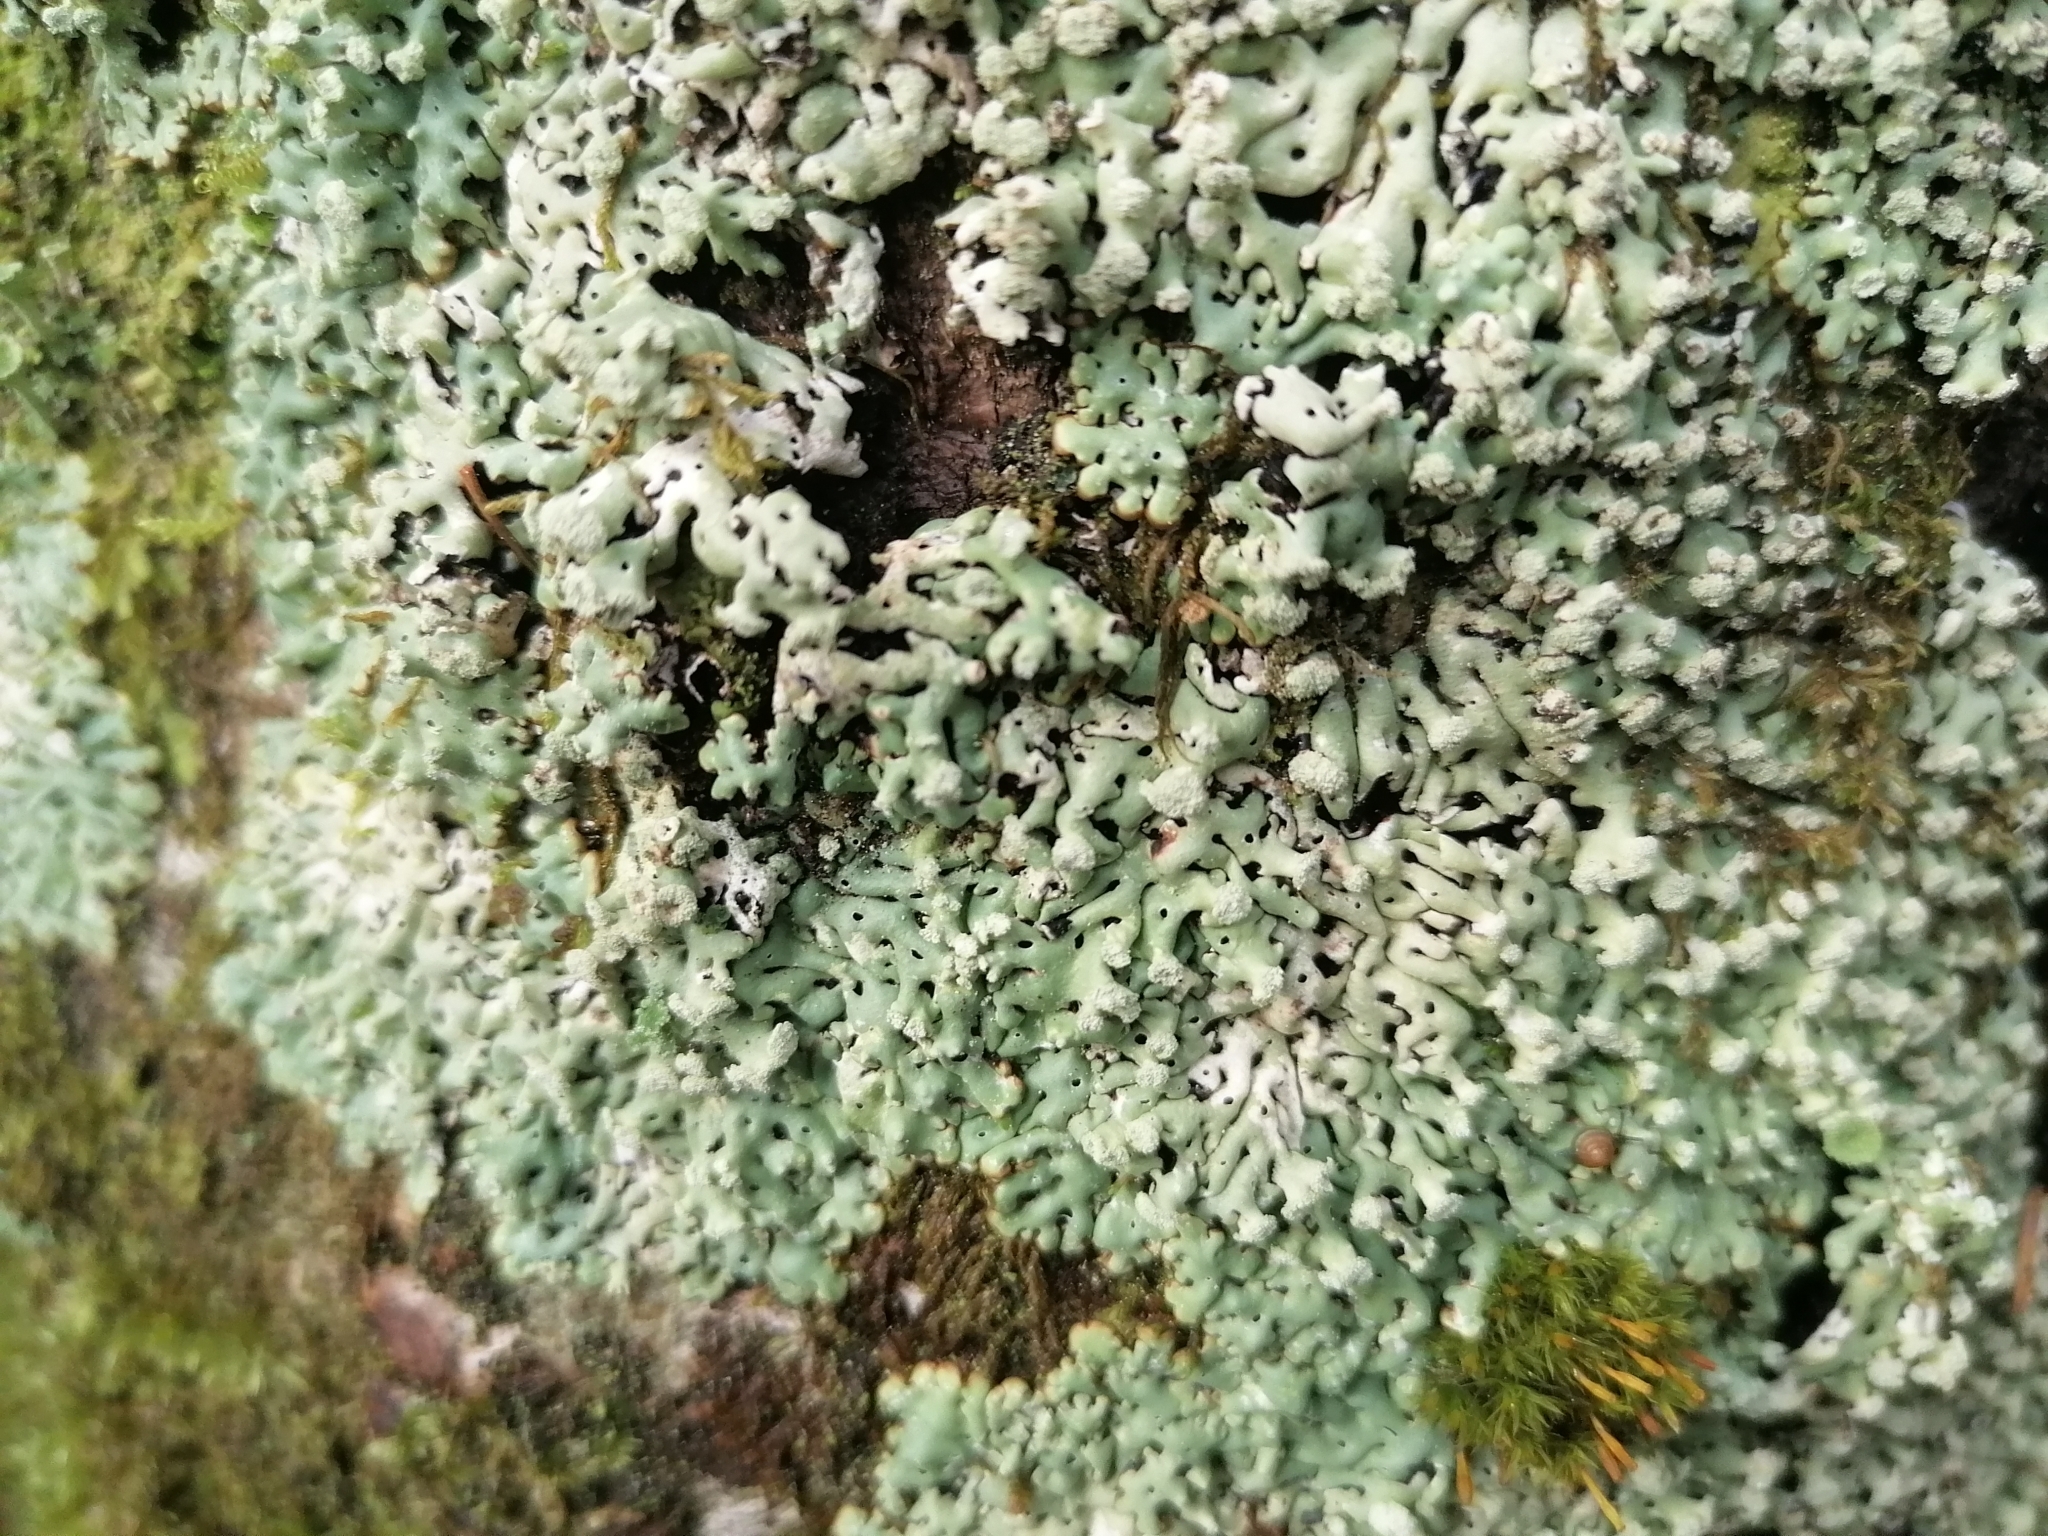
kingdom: Fungi
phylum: Ascomycota
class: Lecanoromycetes
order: Lecanorales
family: Parmeliaceae
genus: Menegazzia
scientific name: Menegazzia terebrata
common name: Magic treeflute lichen
